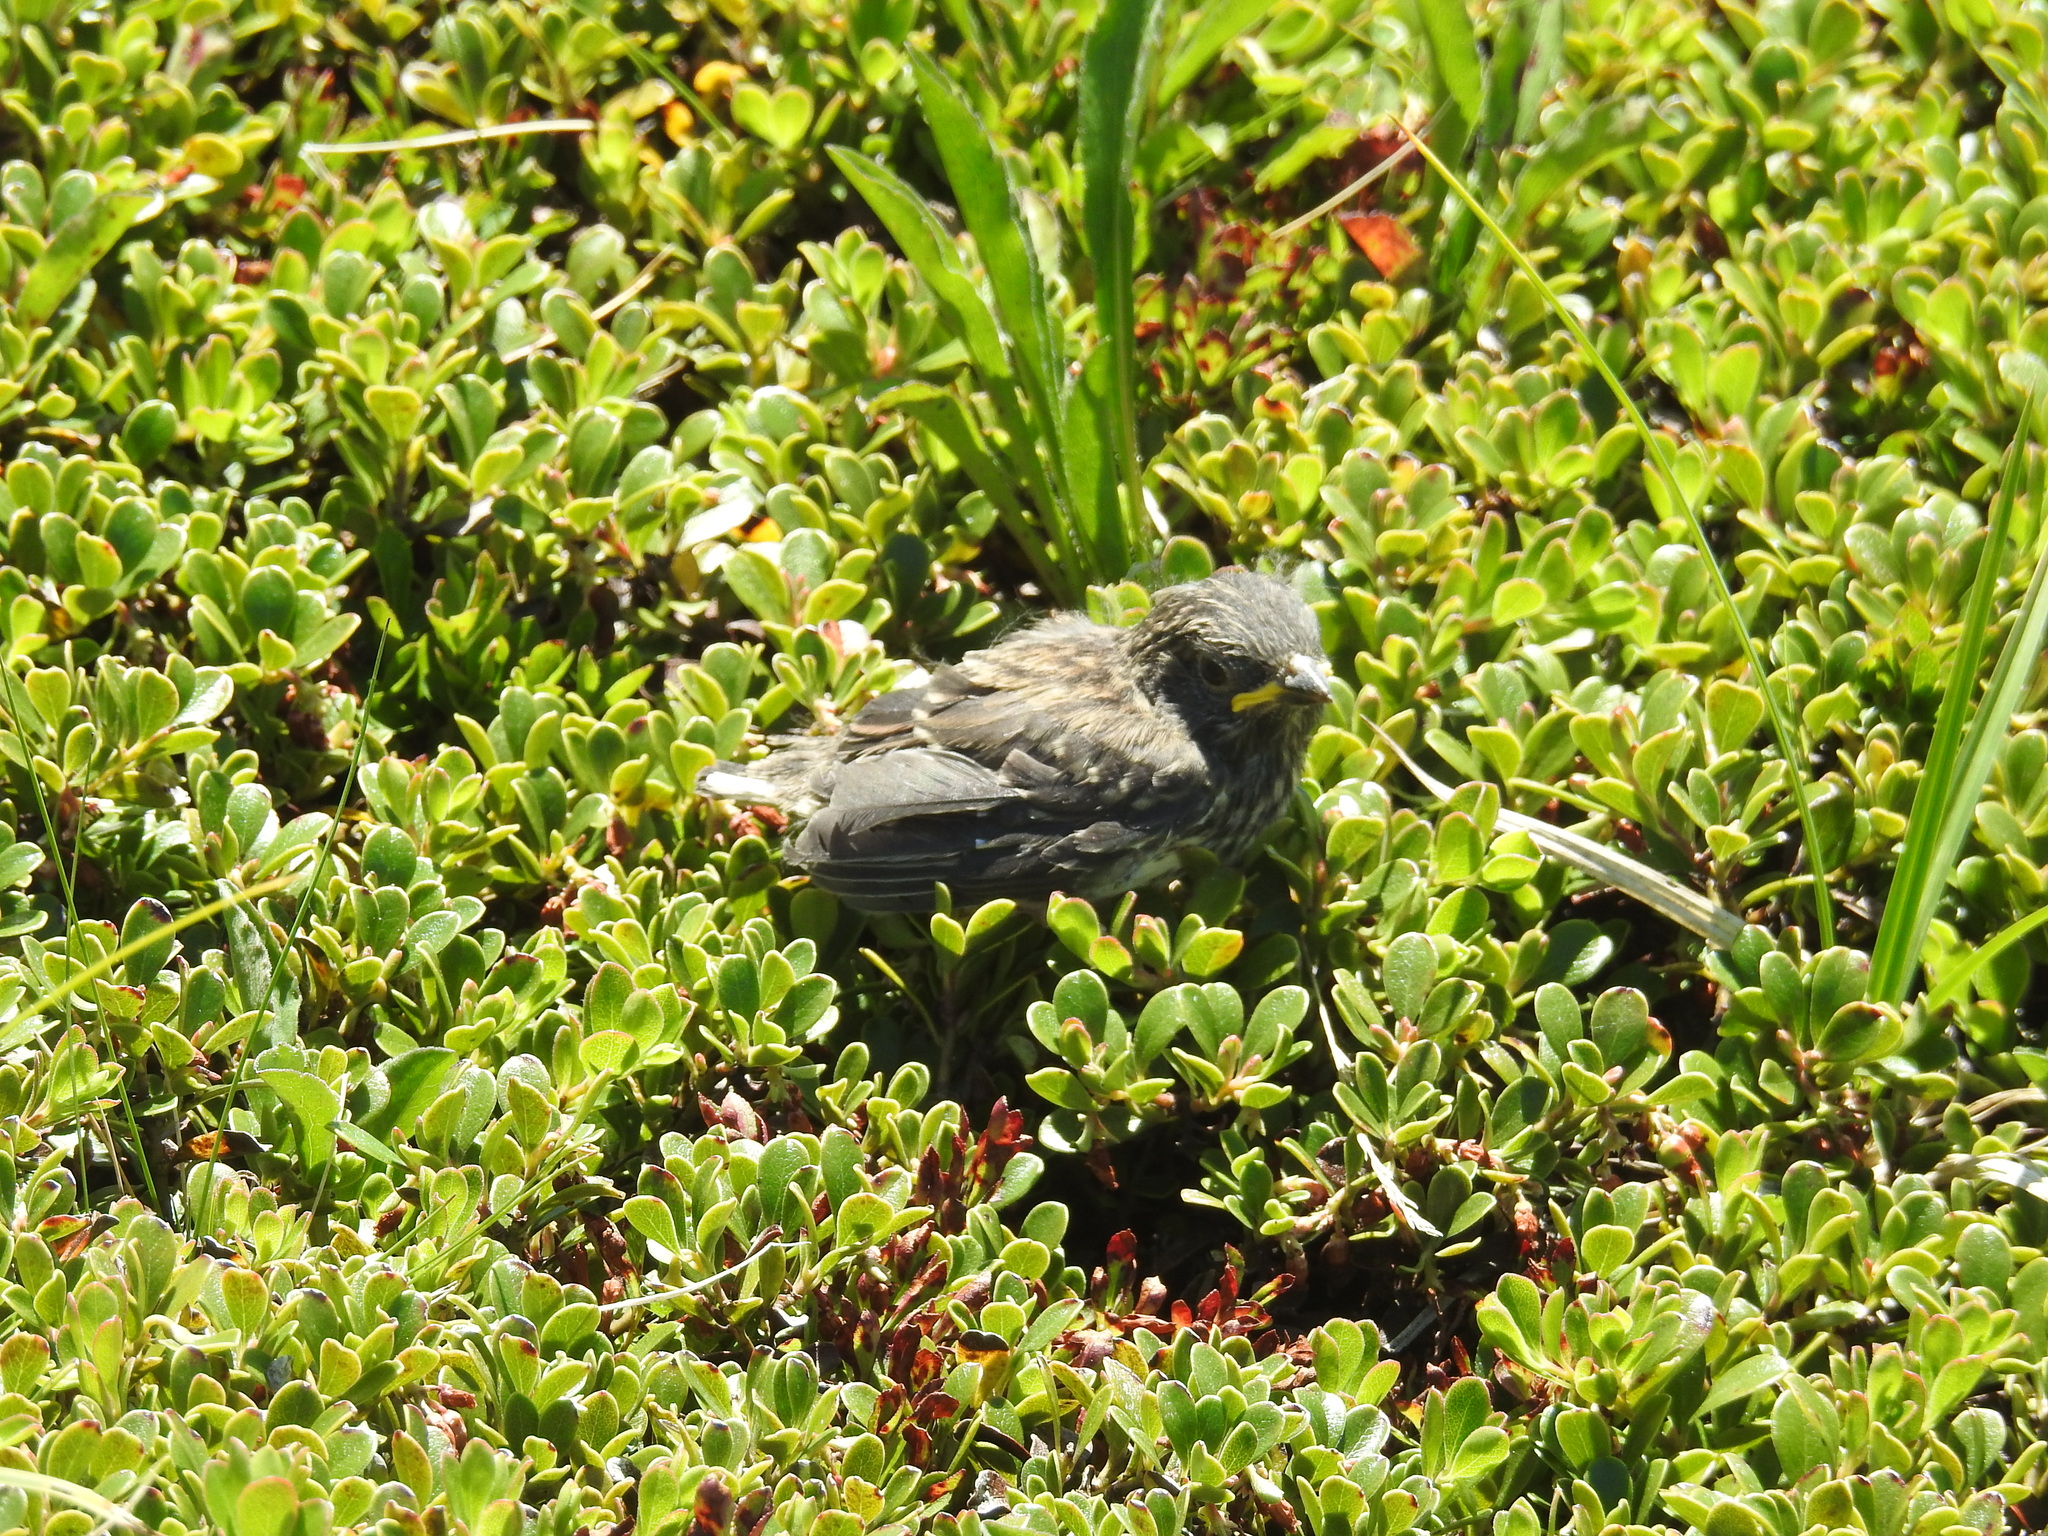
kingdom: Animalia
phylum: Chordata
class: Aves
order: Passeriformes
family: Alaudidae
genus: Eremophila
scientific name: Eremophila alpestris
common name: Horned lark
